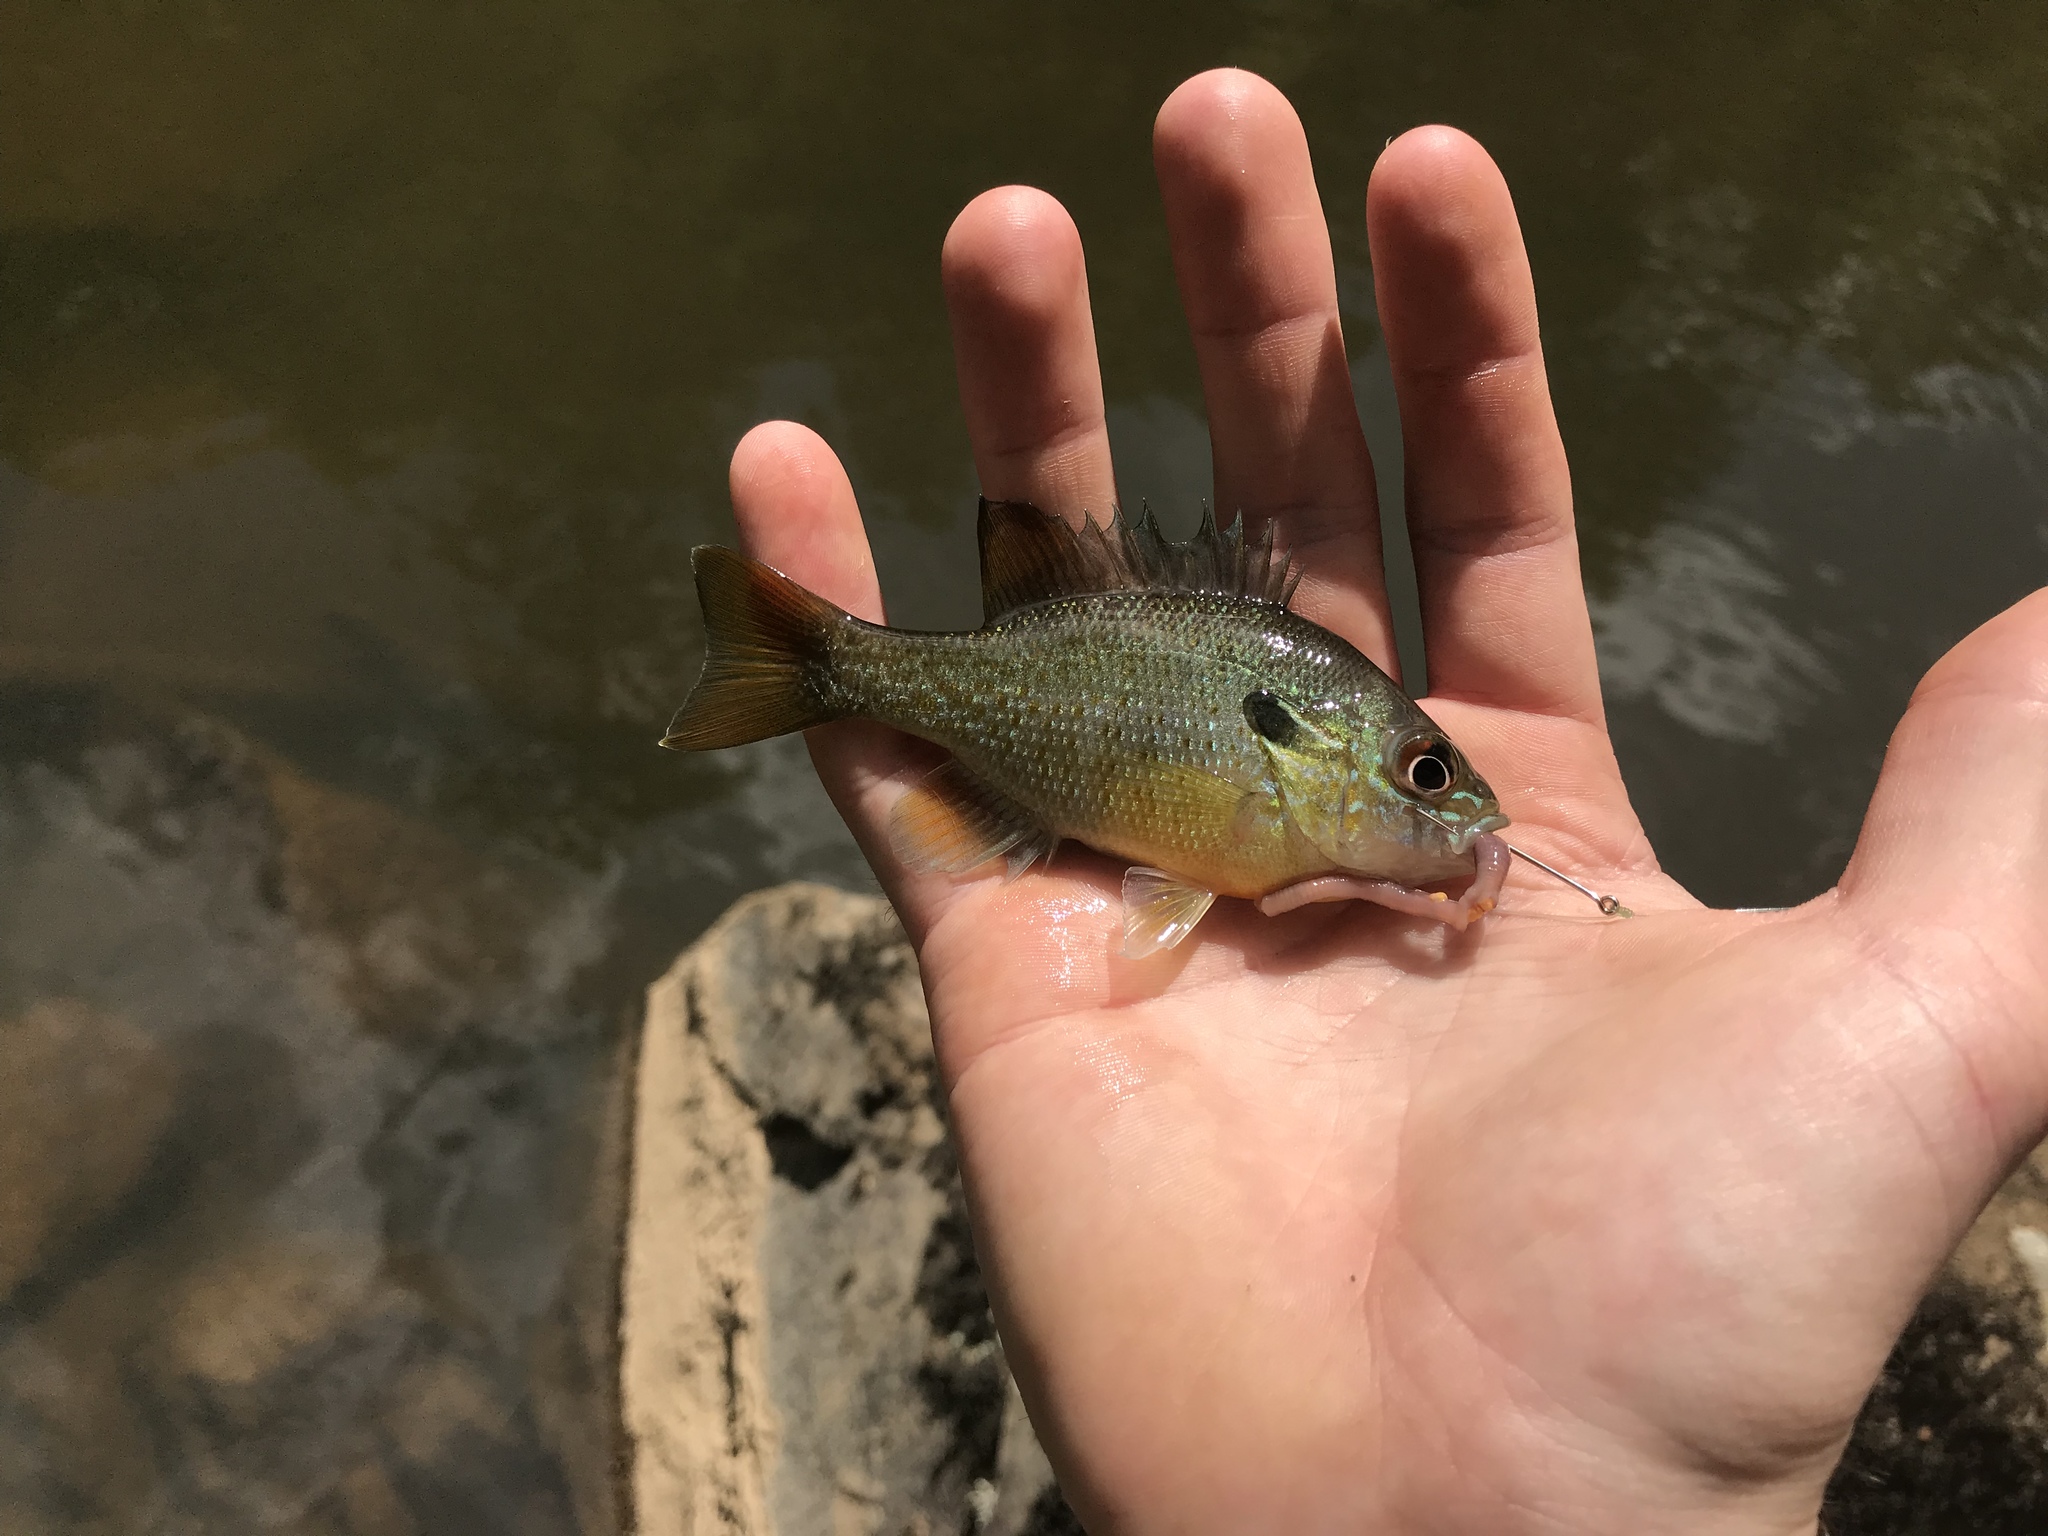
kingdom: Animalia
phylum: Chordata
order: Perciformes
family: Centrarchidae
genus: Lepomis
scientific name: Lepomis auritus
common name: Redbreast sunfish
